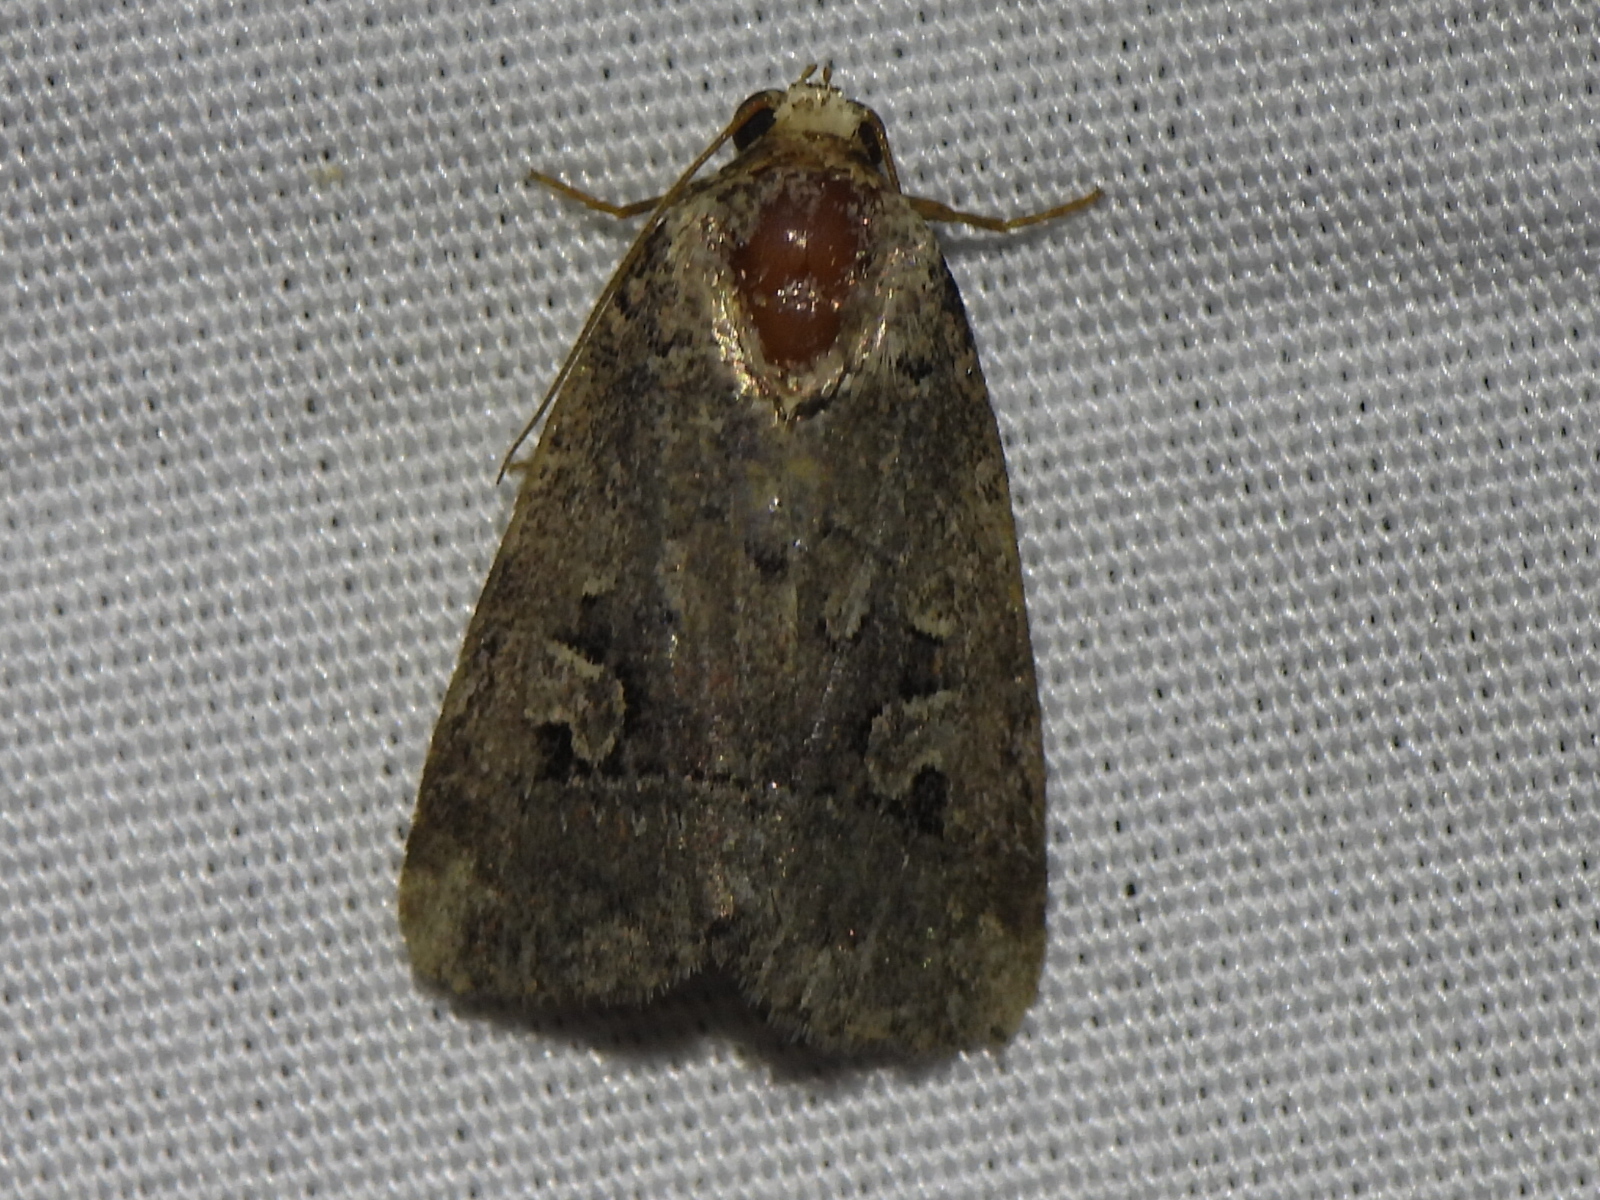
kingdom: Animalia
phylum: Arthropoda
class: Insecta
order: Lepidoptera
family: Noctuidae
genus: Elaphria
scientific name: Elaphria festivoides
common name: Festive midget
